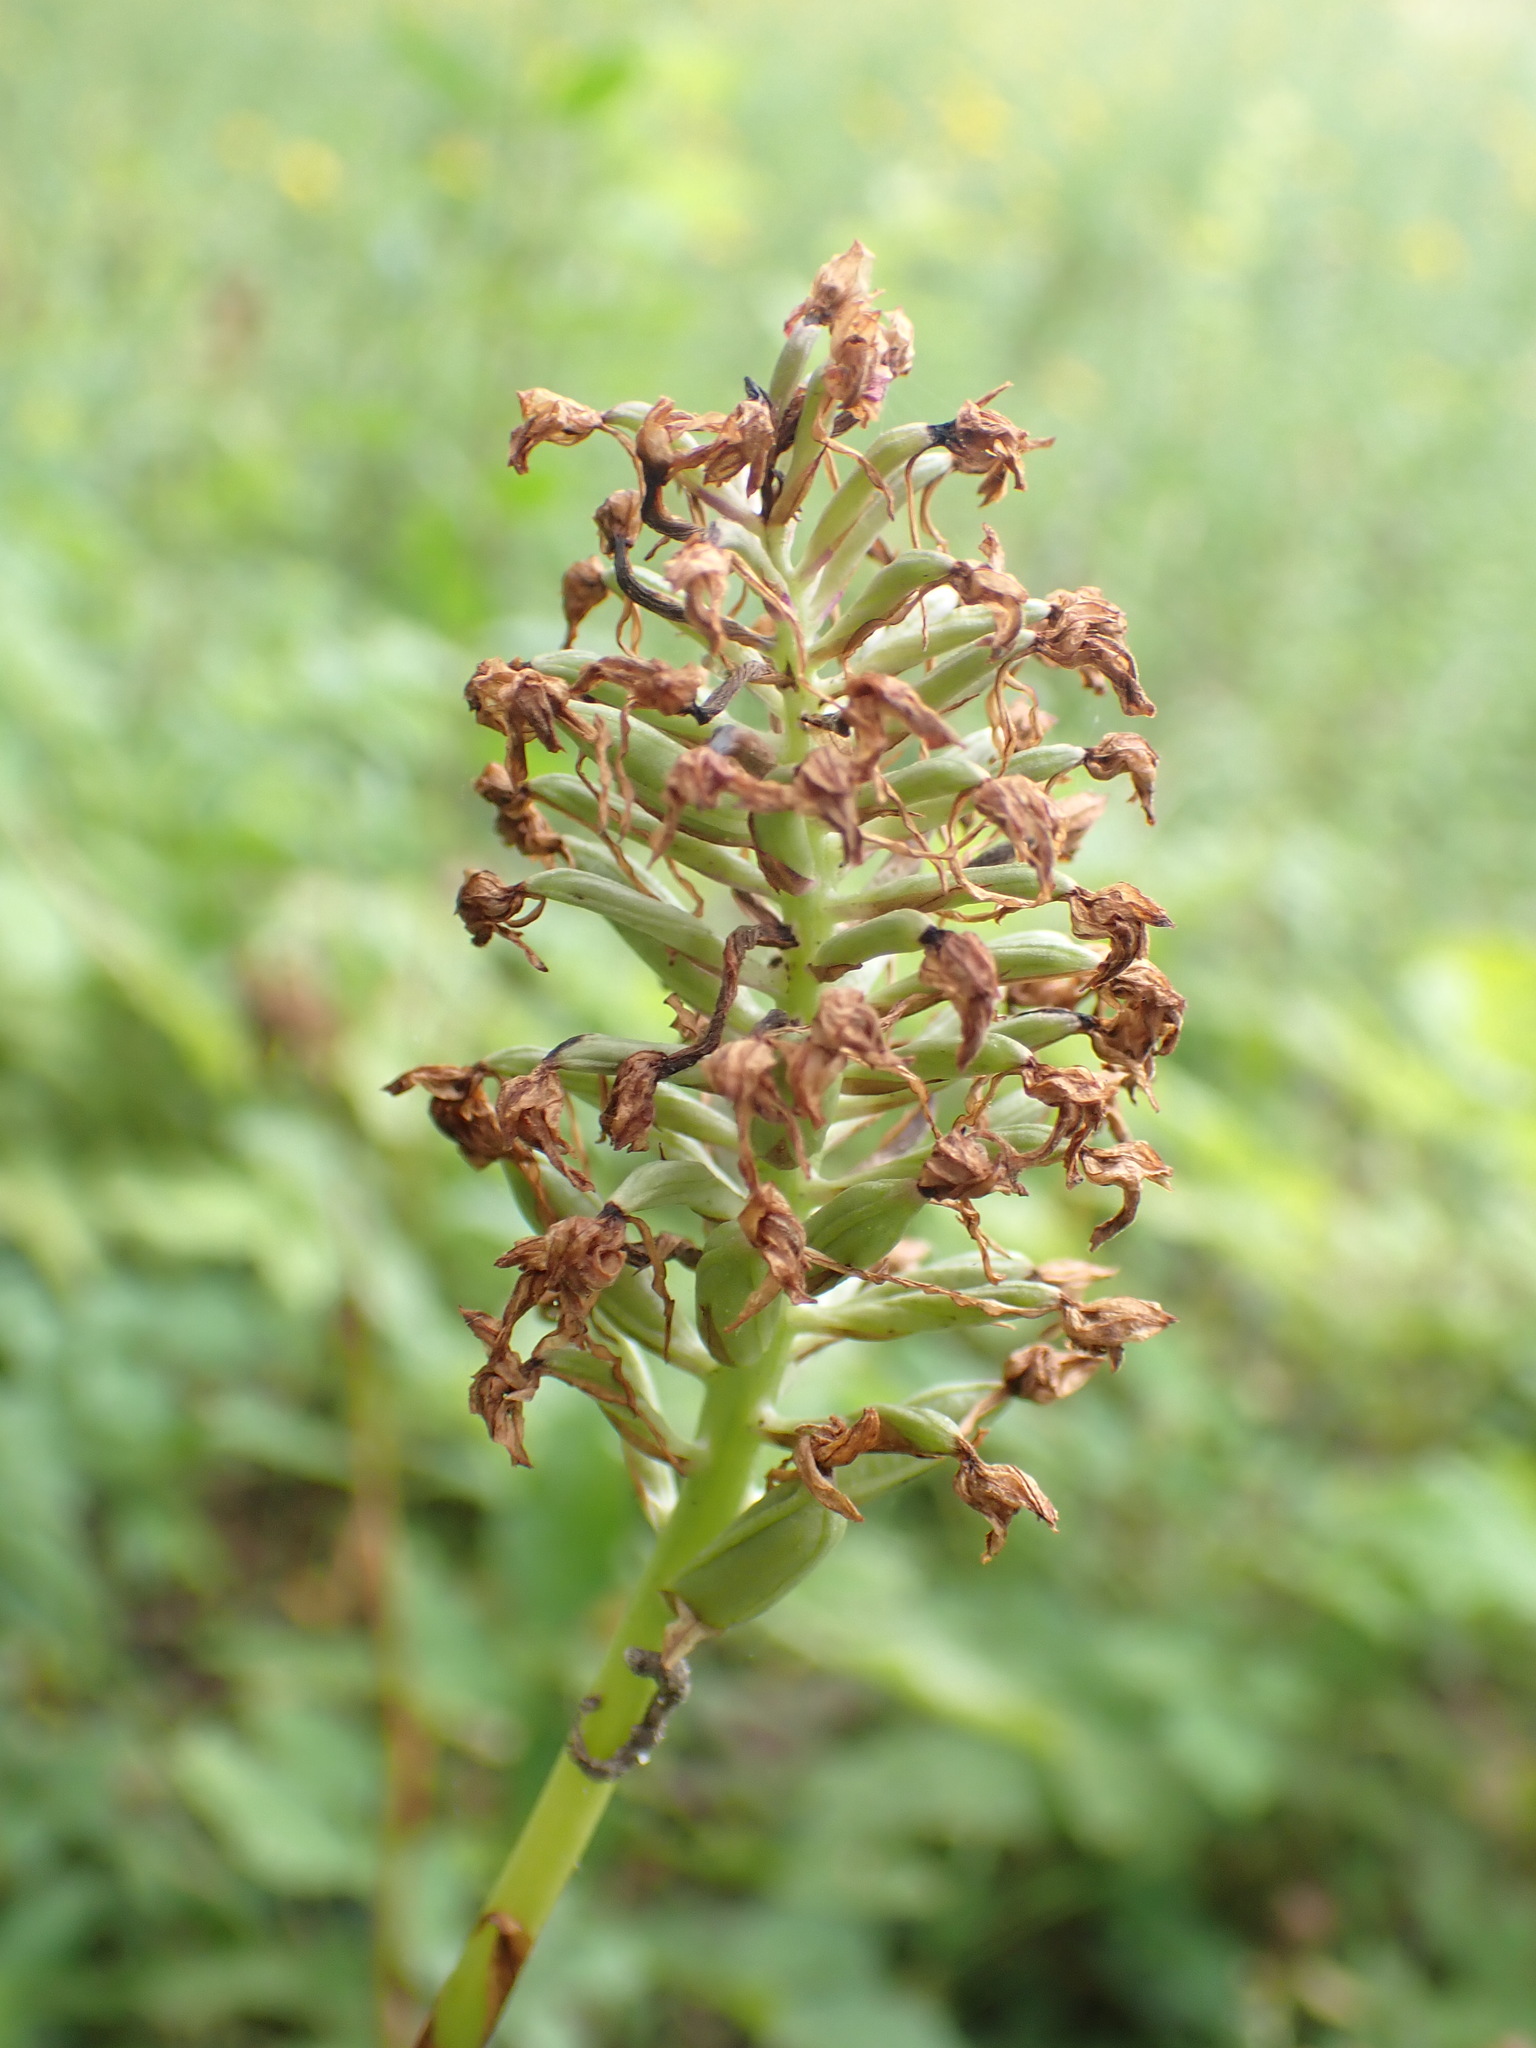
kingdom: Plantae
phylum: Tracheophyta
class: Liliopsida
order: Asparagales
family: Orchidaceae
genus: Anacamptis
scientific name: Anacamptis pyramidalis
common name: Pyramidal orchid
